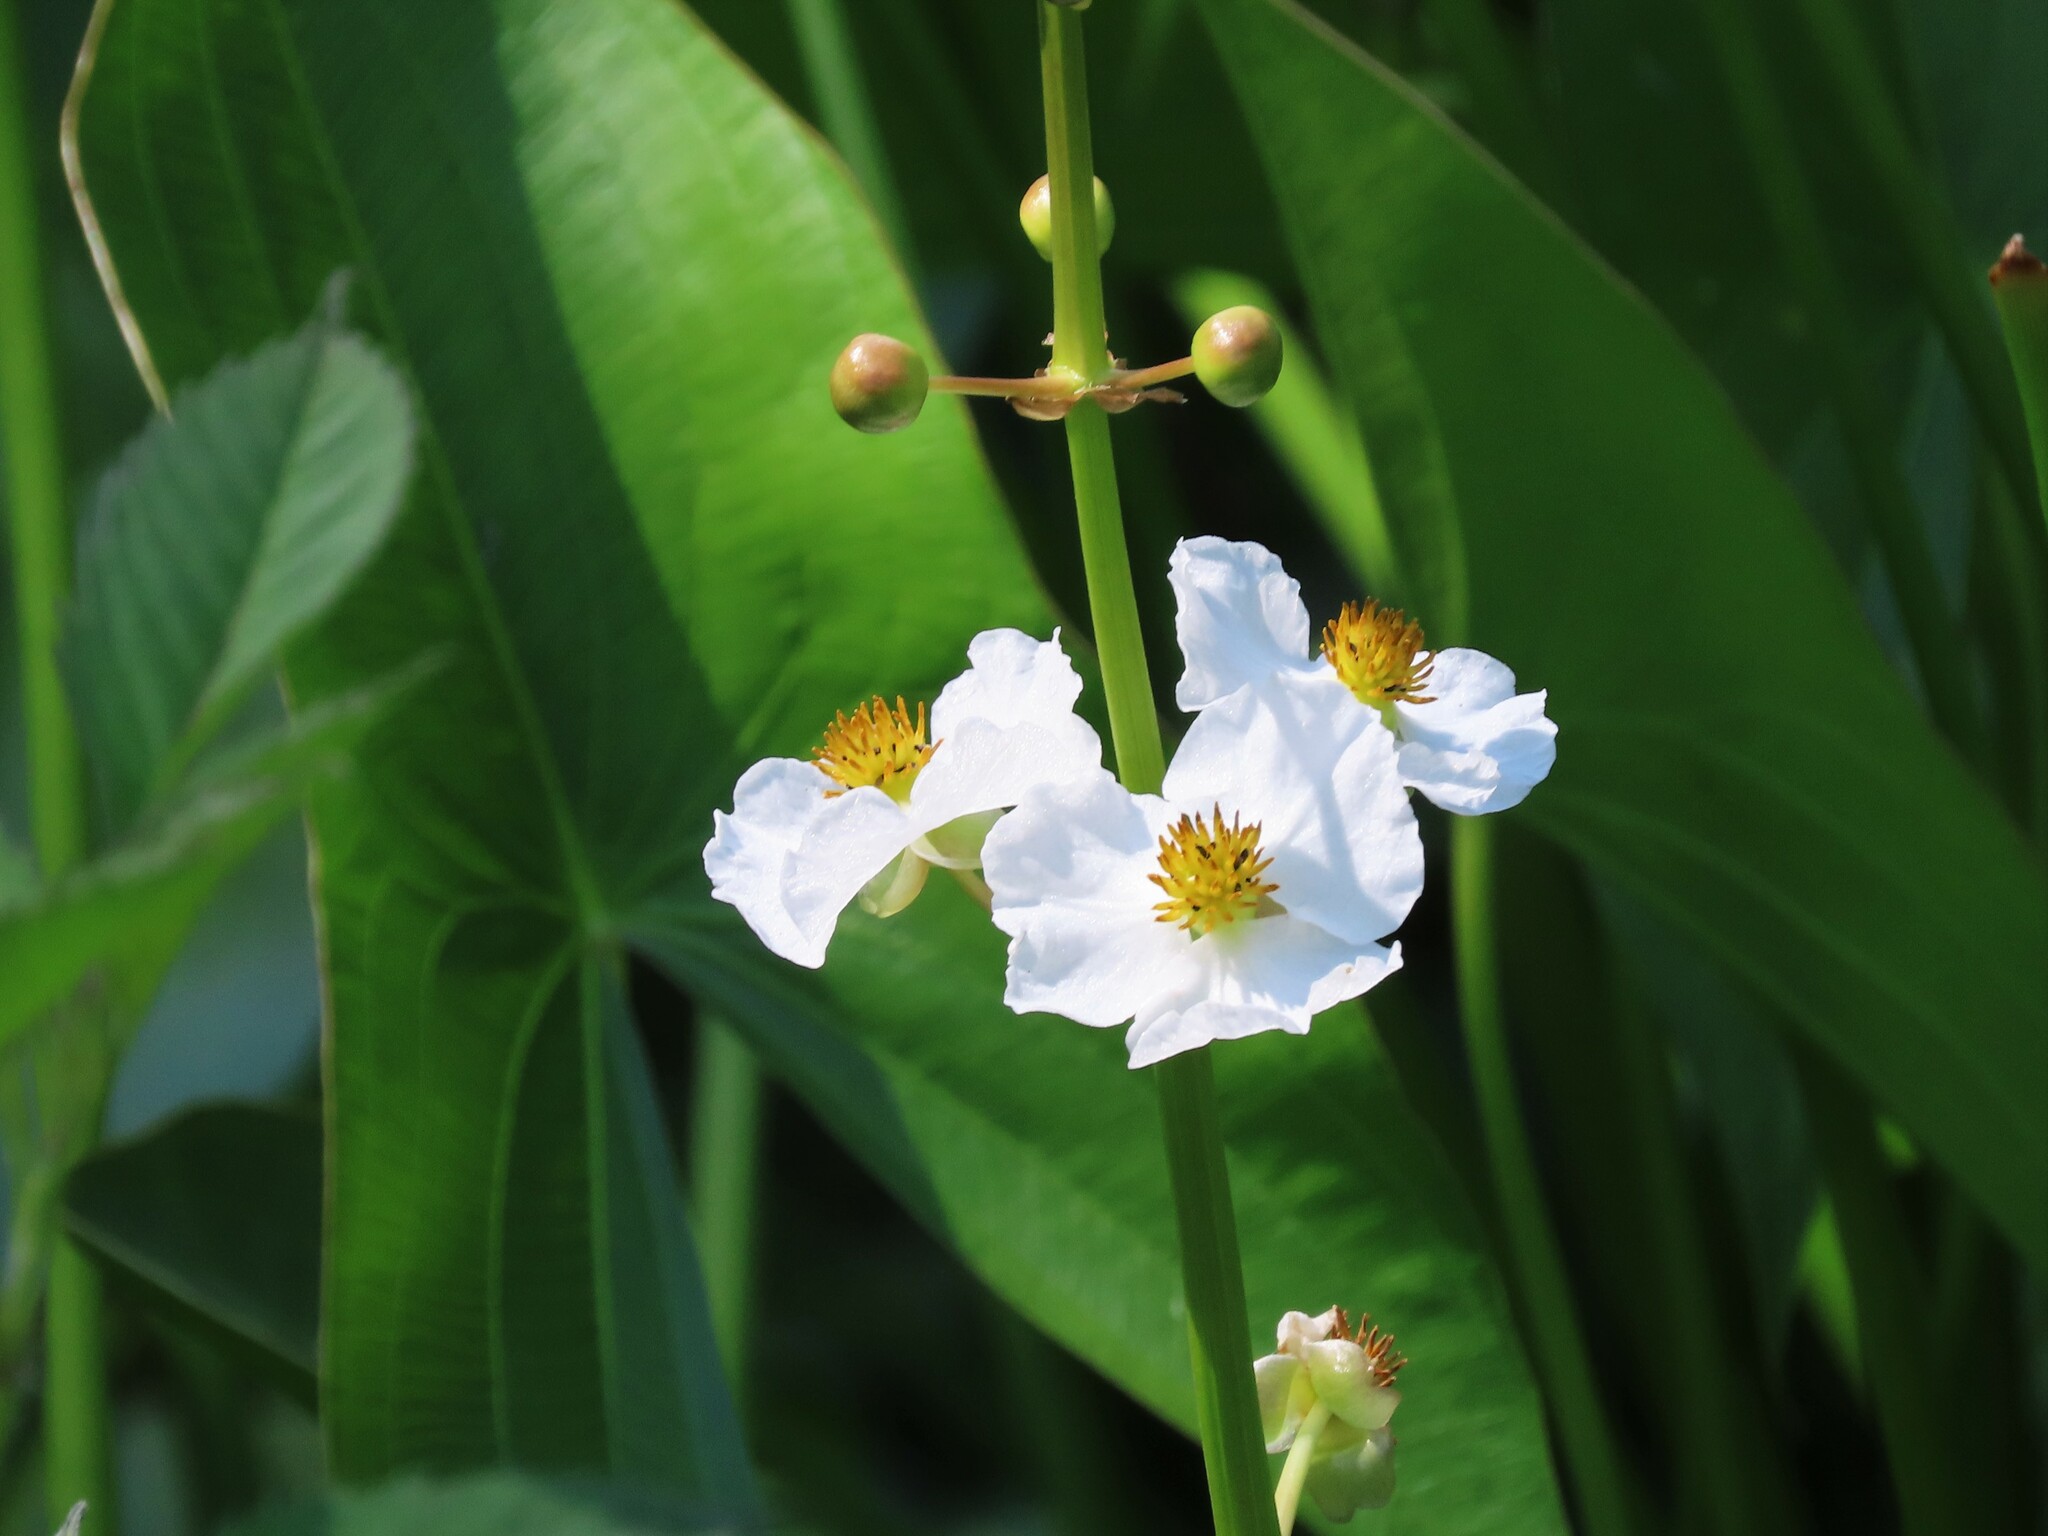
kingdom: Plantae
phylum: Tracheophyta
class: Liliopsida
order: Alismatales
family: Alismataceae
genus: Sagittaria
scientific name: Sagittaria latifolia
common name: Duck-potato
